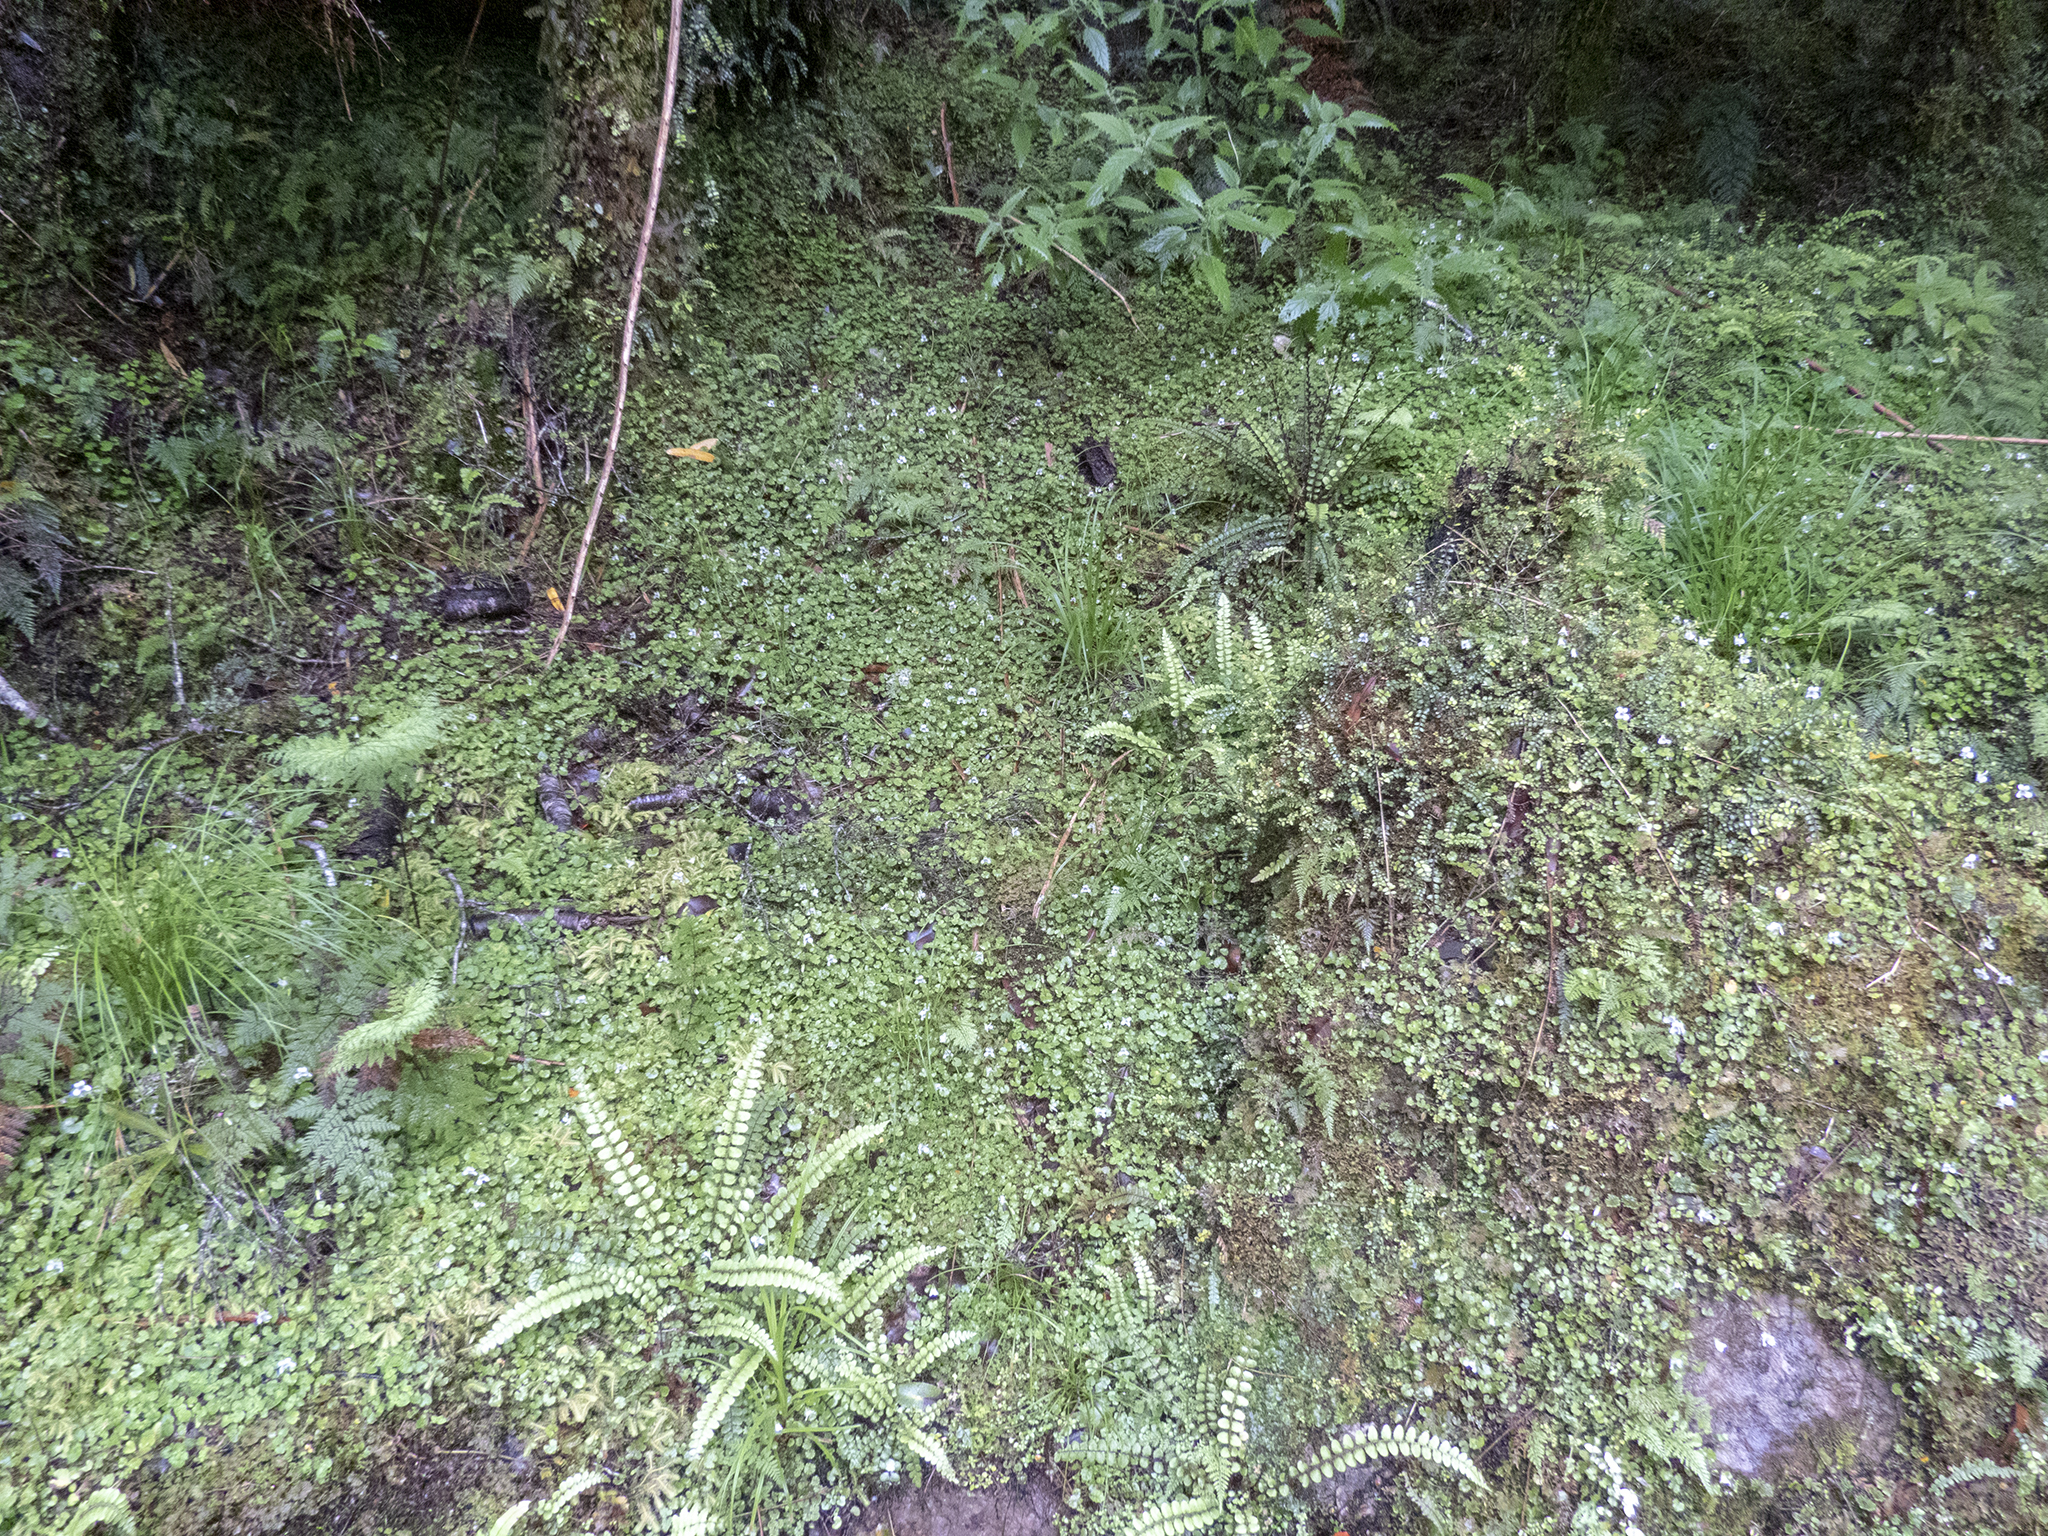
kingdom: Plantae
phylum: Tracheophyta
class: Magnoliopsida
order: Malpighiales
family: Violaceae
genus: Viola
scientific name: Viola filicaulis
